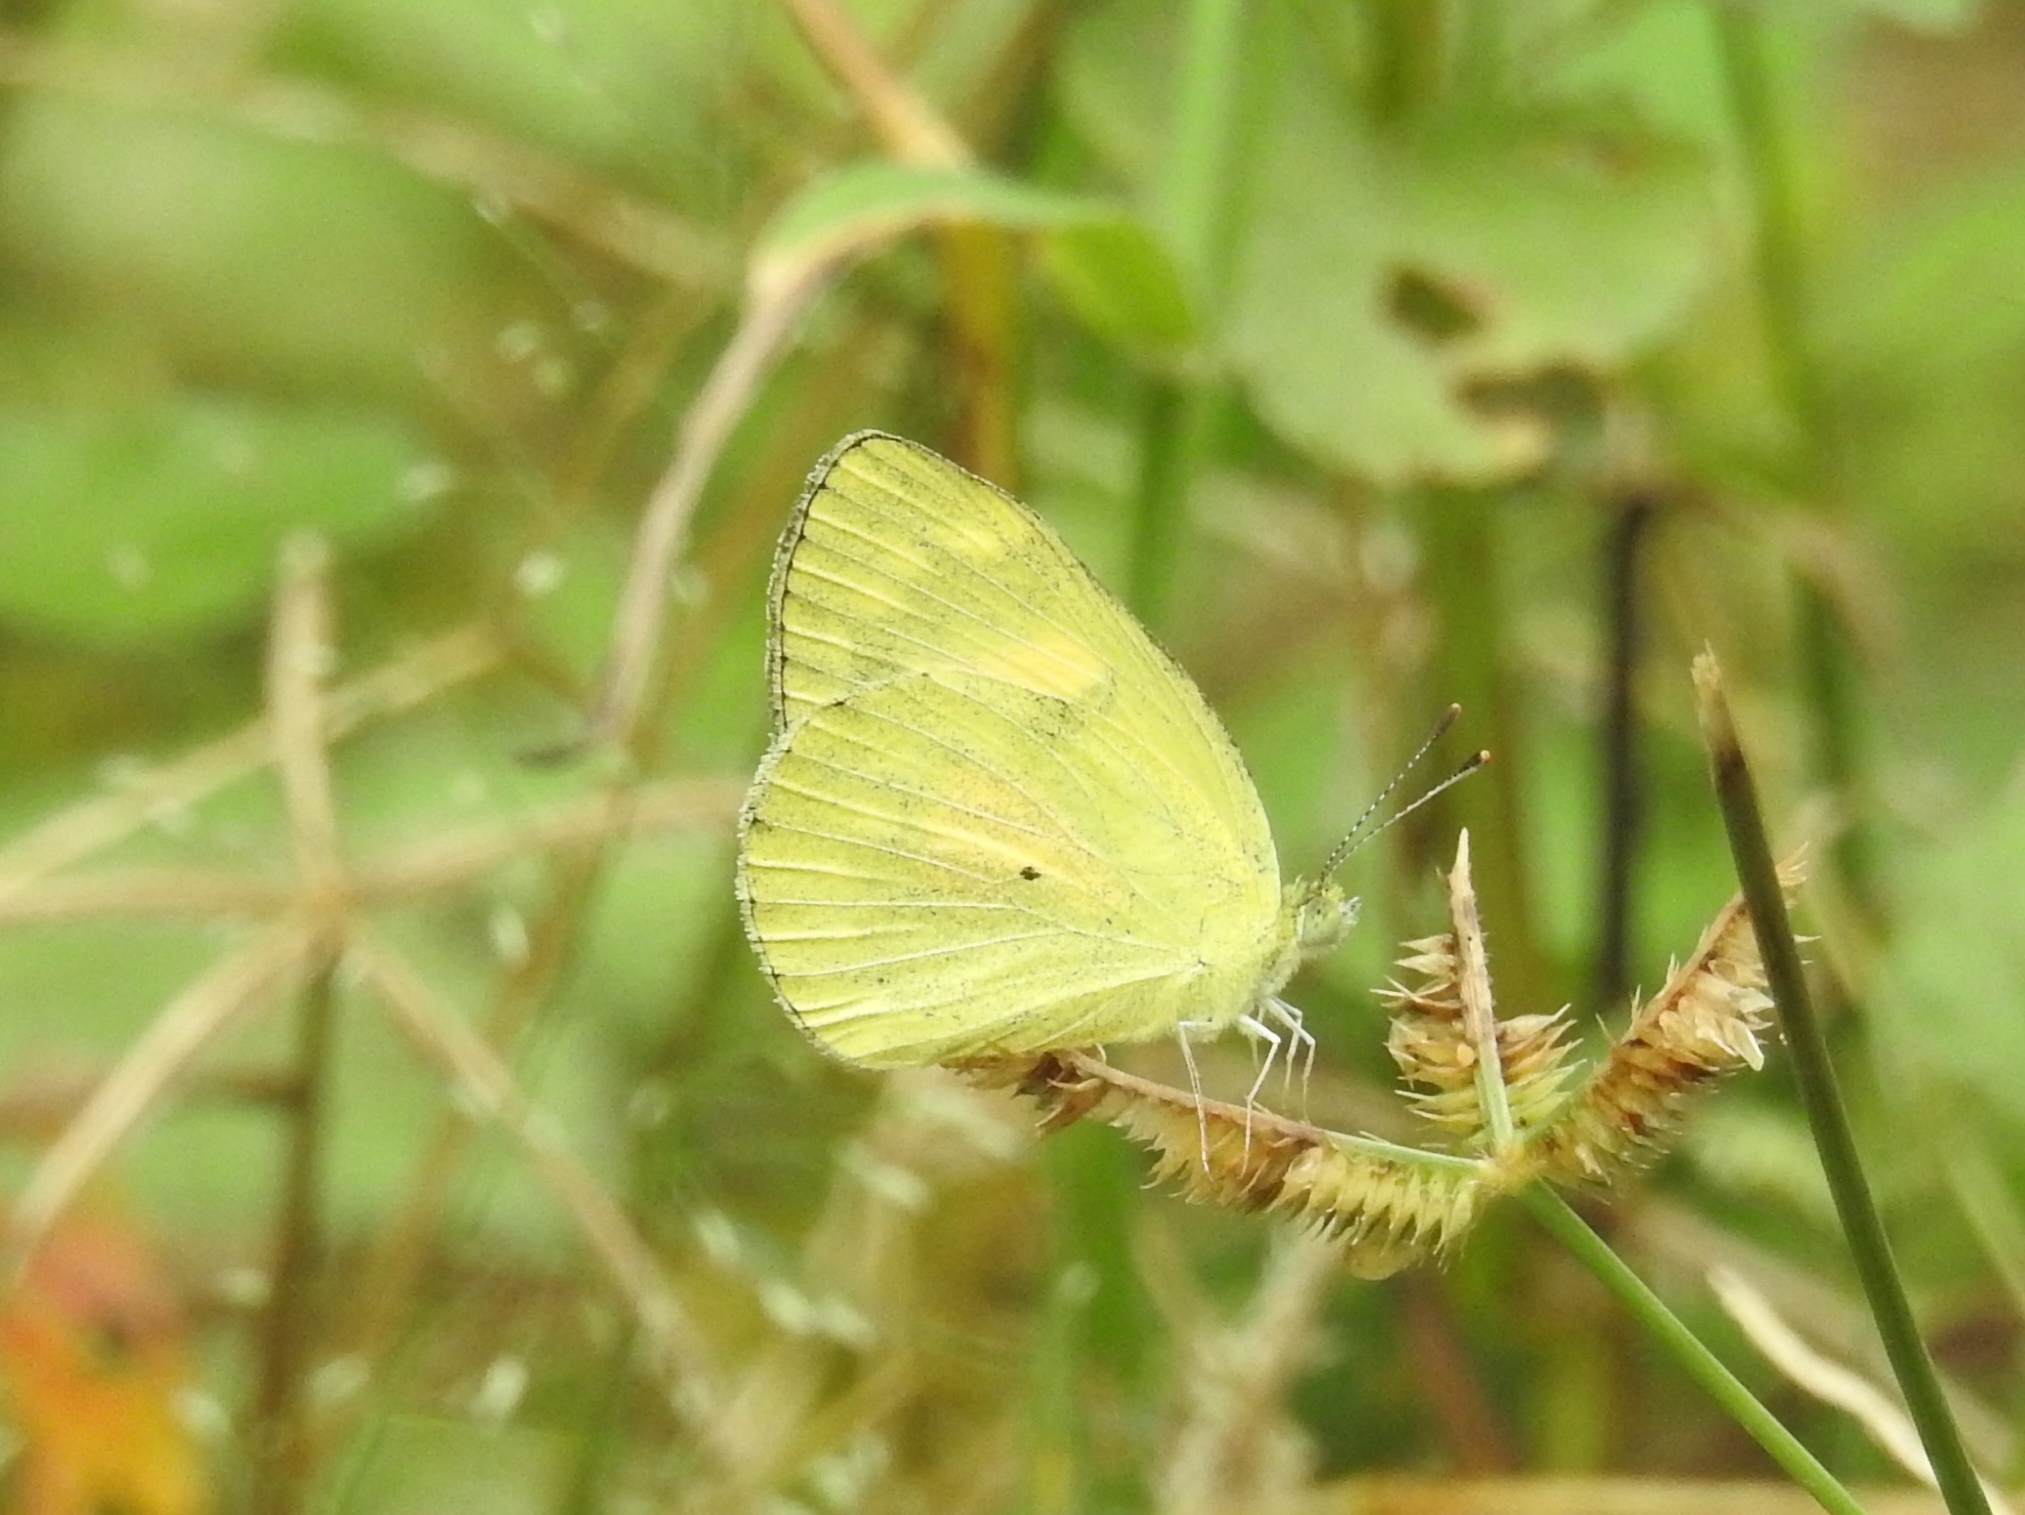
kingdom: Animalia
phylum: Arthropoda
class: Insecta
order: Lepidoptera
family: Pieridae
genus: Colotis
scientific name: Colotis amata
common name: Small salmon arab
